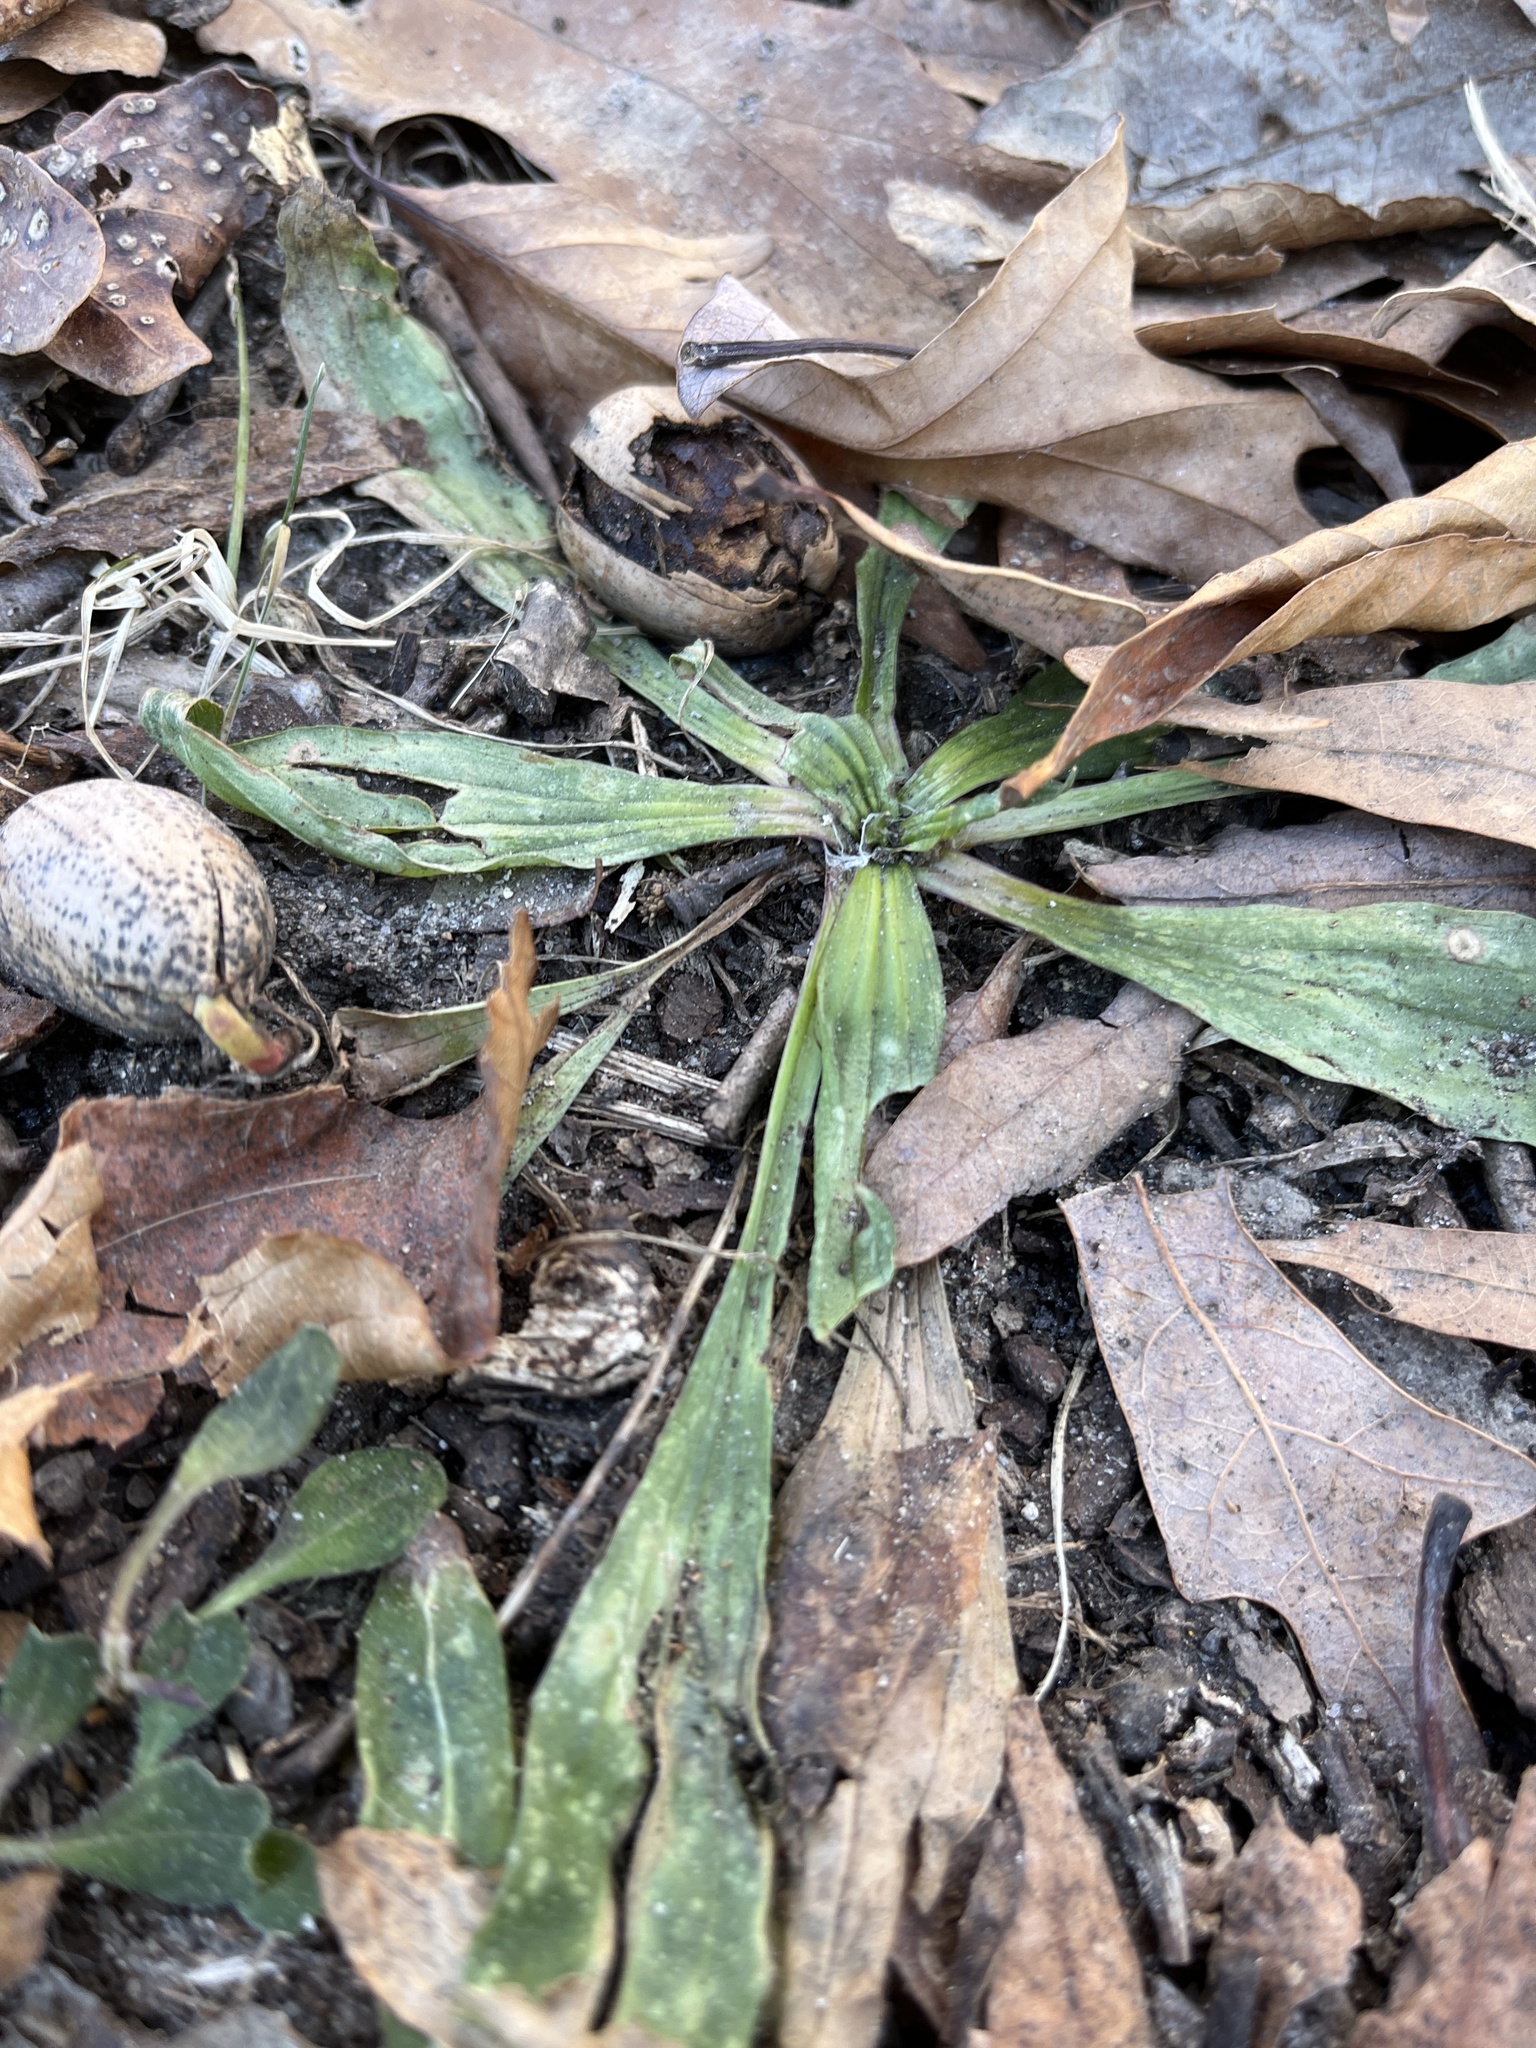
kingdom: Plantae
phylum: Tracheophyta
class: Magnoliopsida
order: Lamiales
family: Plantaginaceae
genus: Plantago
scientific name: Plantago lanceolata
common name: Ribwort plantain
